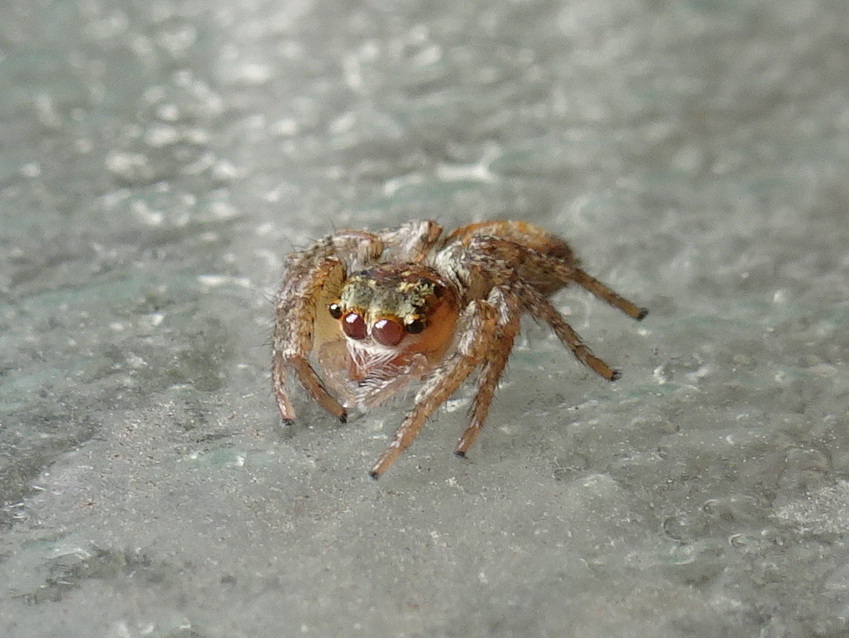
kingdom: Animalia
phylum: Arthropoda
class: Arachnida
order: Araneae
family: Salticidae
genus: Maevia
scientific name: Maevia inclemens
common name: Dimorphic jumper
